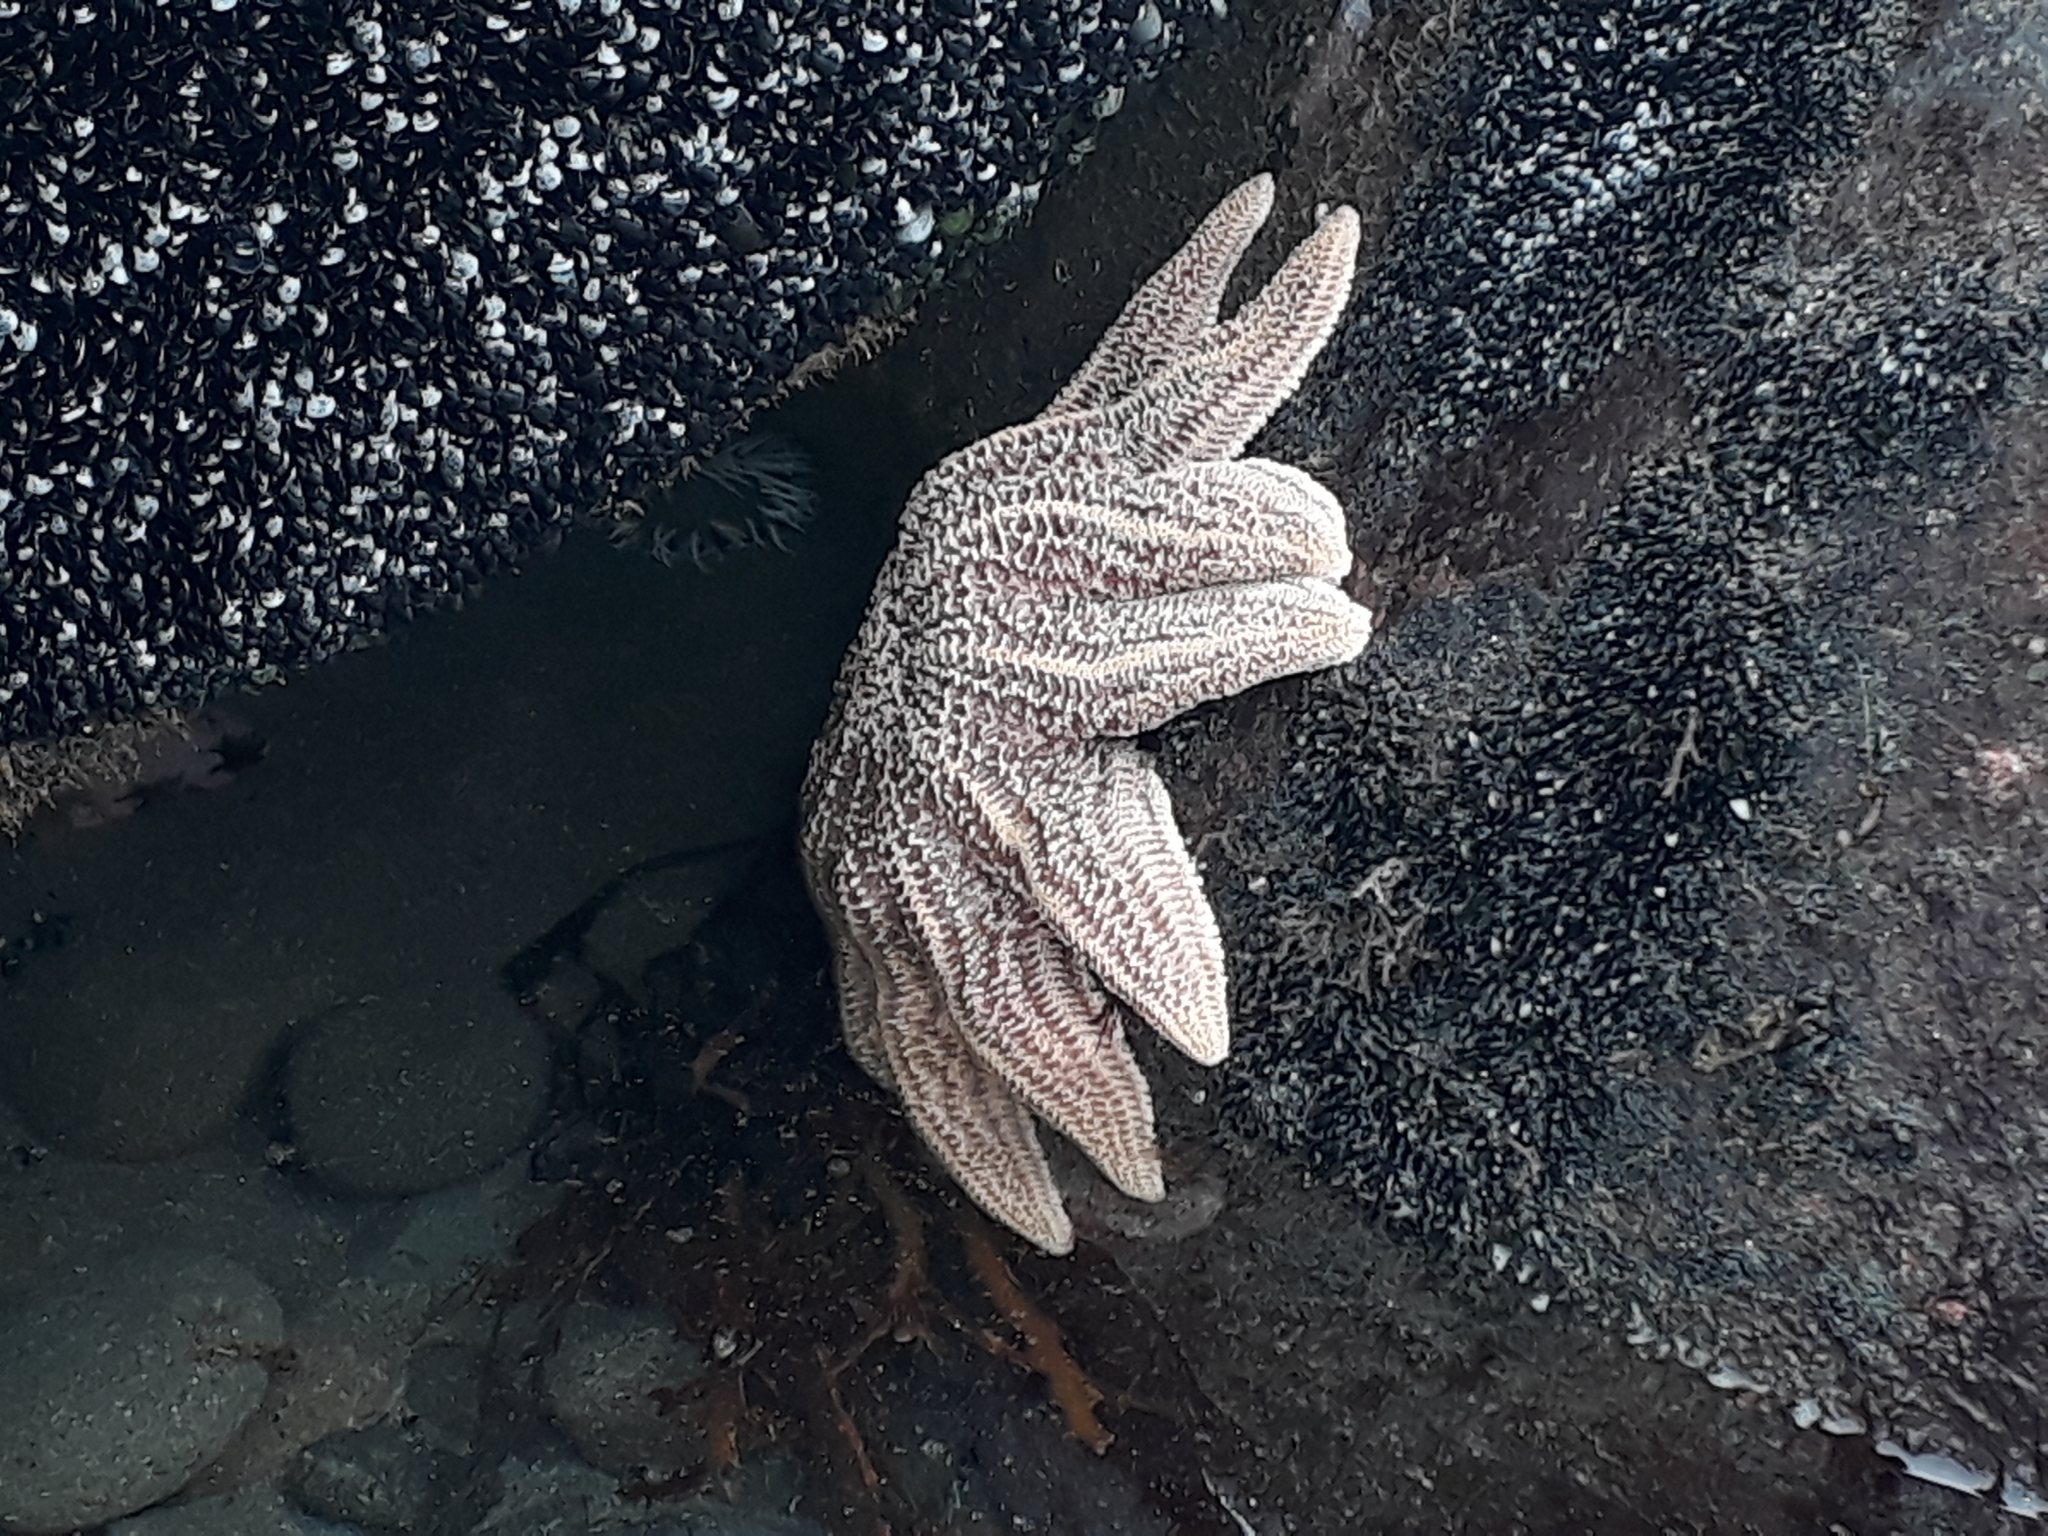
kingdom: Animalia
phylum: Echinodermata
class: Asteroidea
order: Forcipulatida
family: Stichasteridae
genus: Stichaster
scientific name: Stichaster australis
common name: Reef starfish
